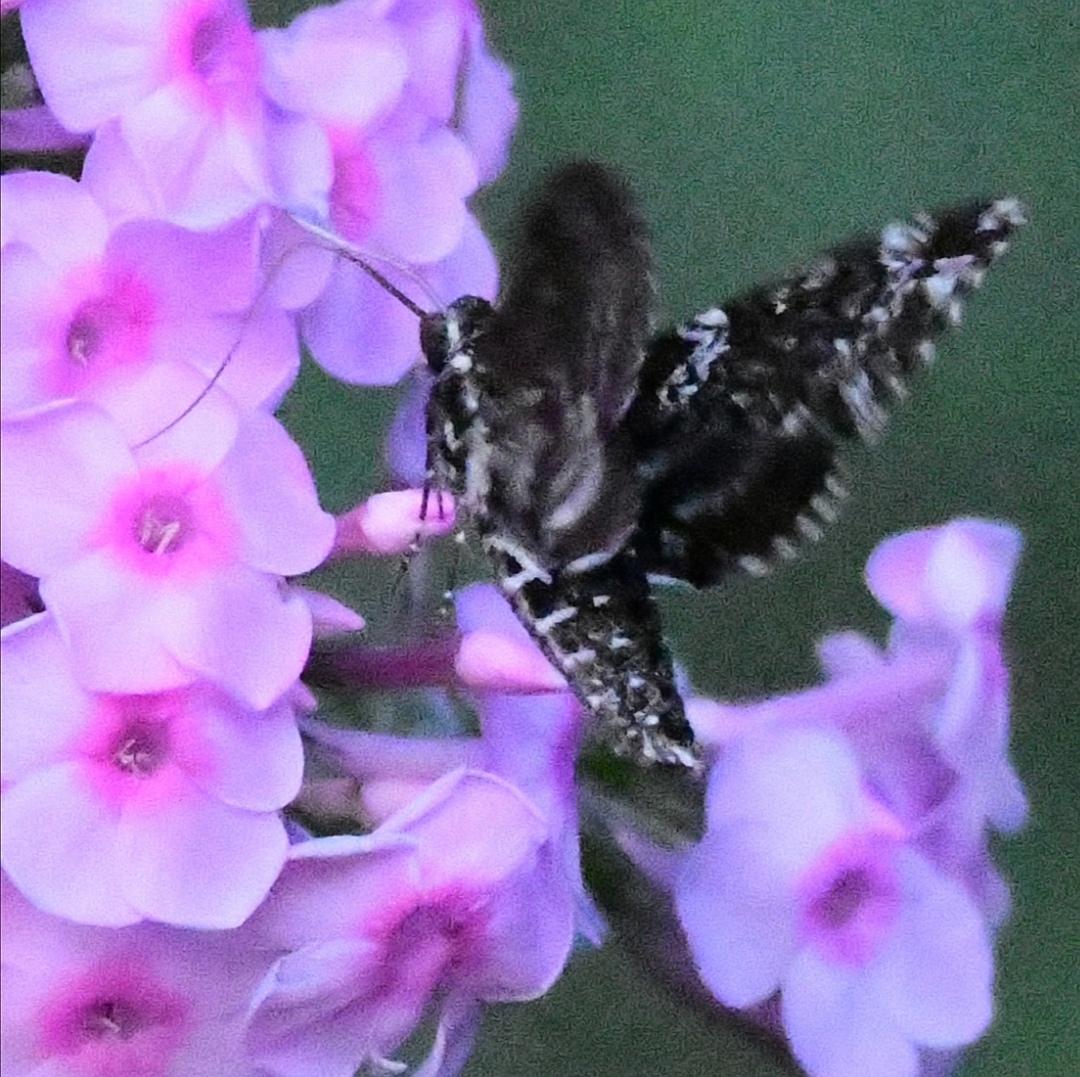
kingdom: Animalia
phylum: Arthropoda
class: Insecta
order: Lepidoptera
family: Sphingidae
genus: Dolba
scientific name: Dolba hyloeus
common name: Pawpaw sphinx
